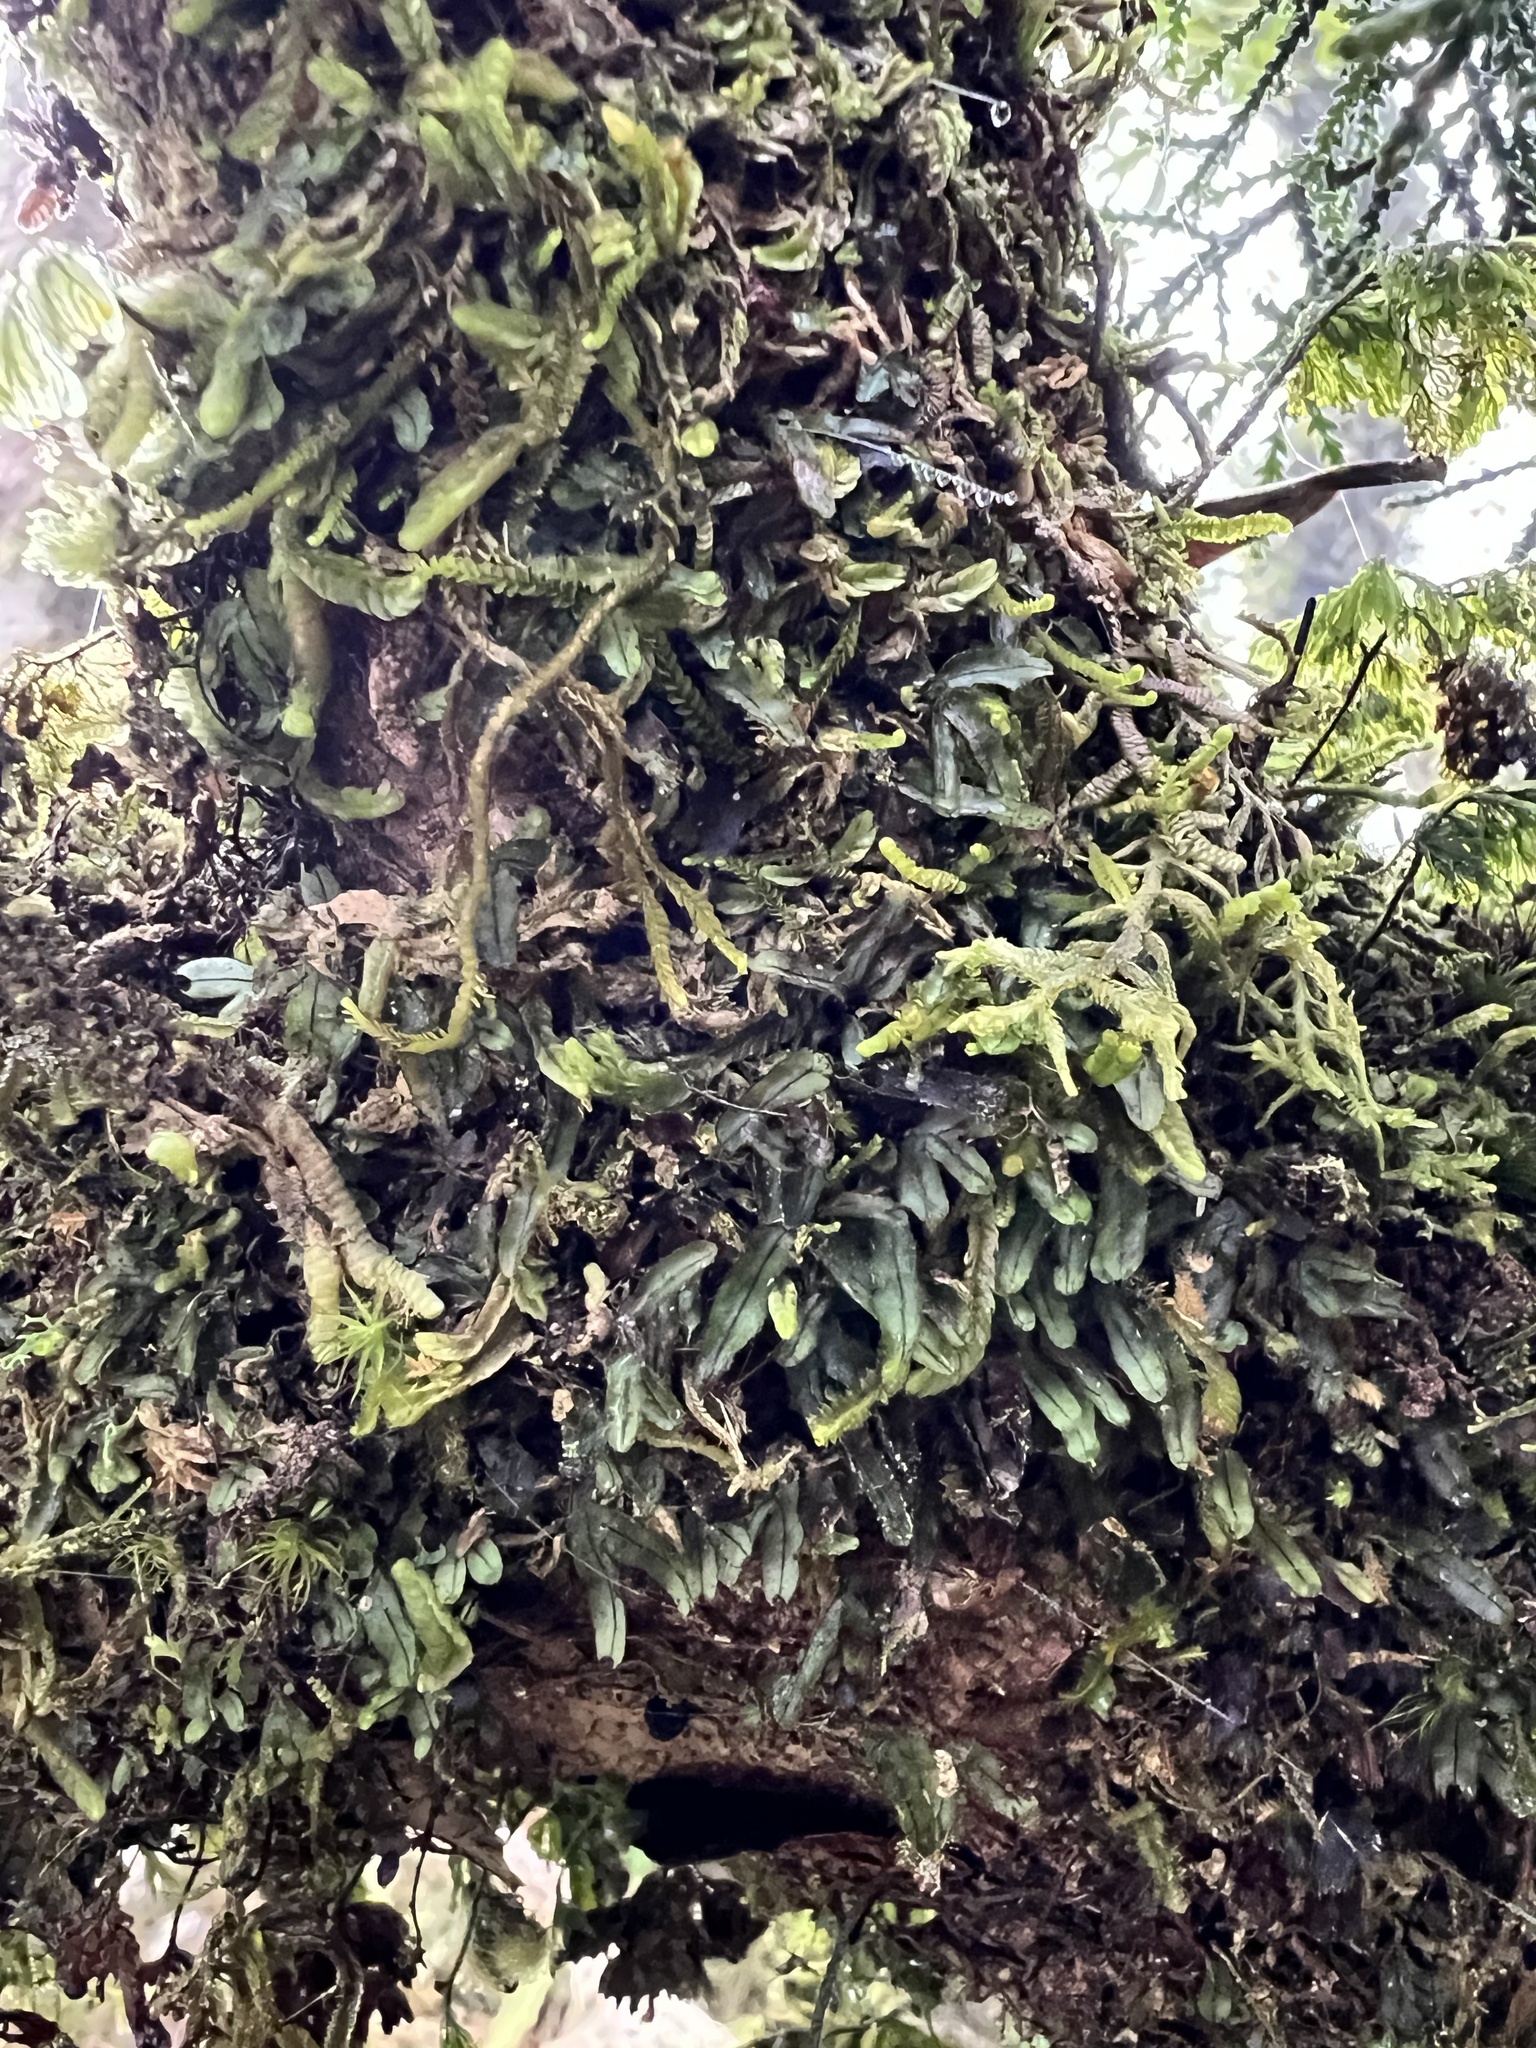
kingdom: Plantae
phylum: Tracheophyta
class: Polypodiopsida
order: Hymenophyllales
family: Hymenophyllaceae
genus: Hymenophyllum
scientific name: Hymenophyllum armstrongii
